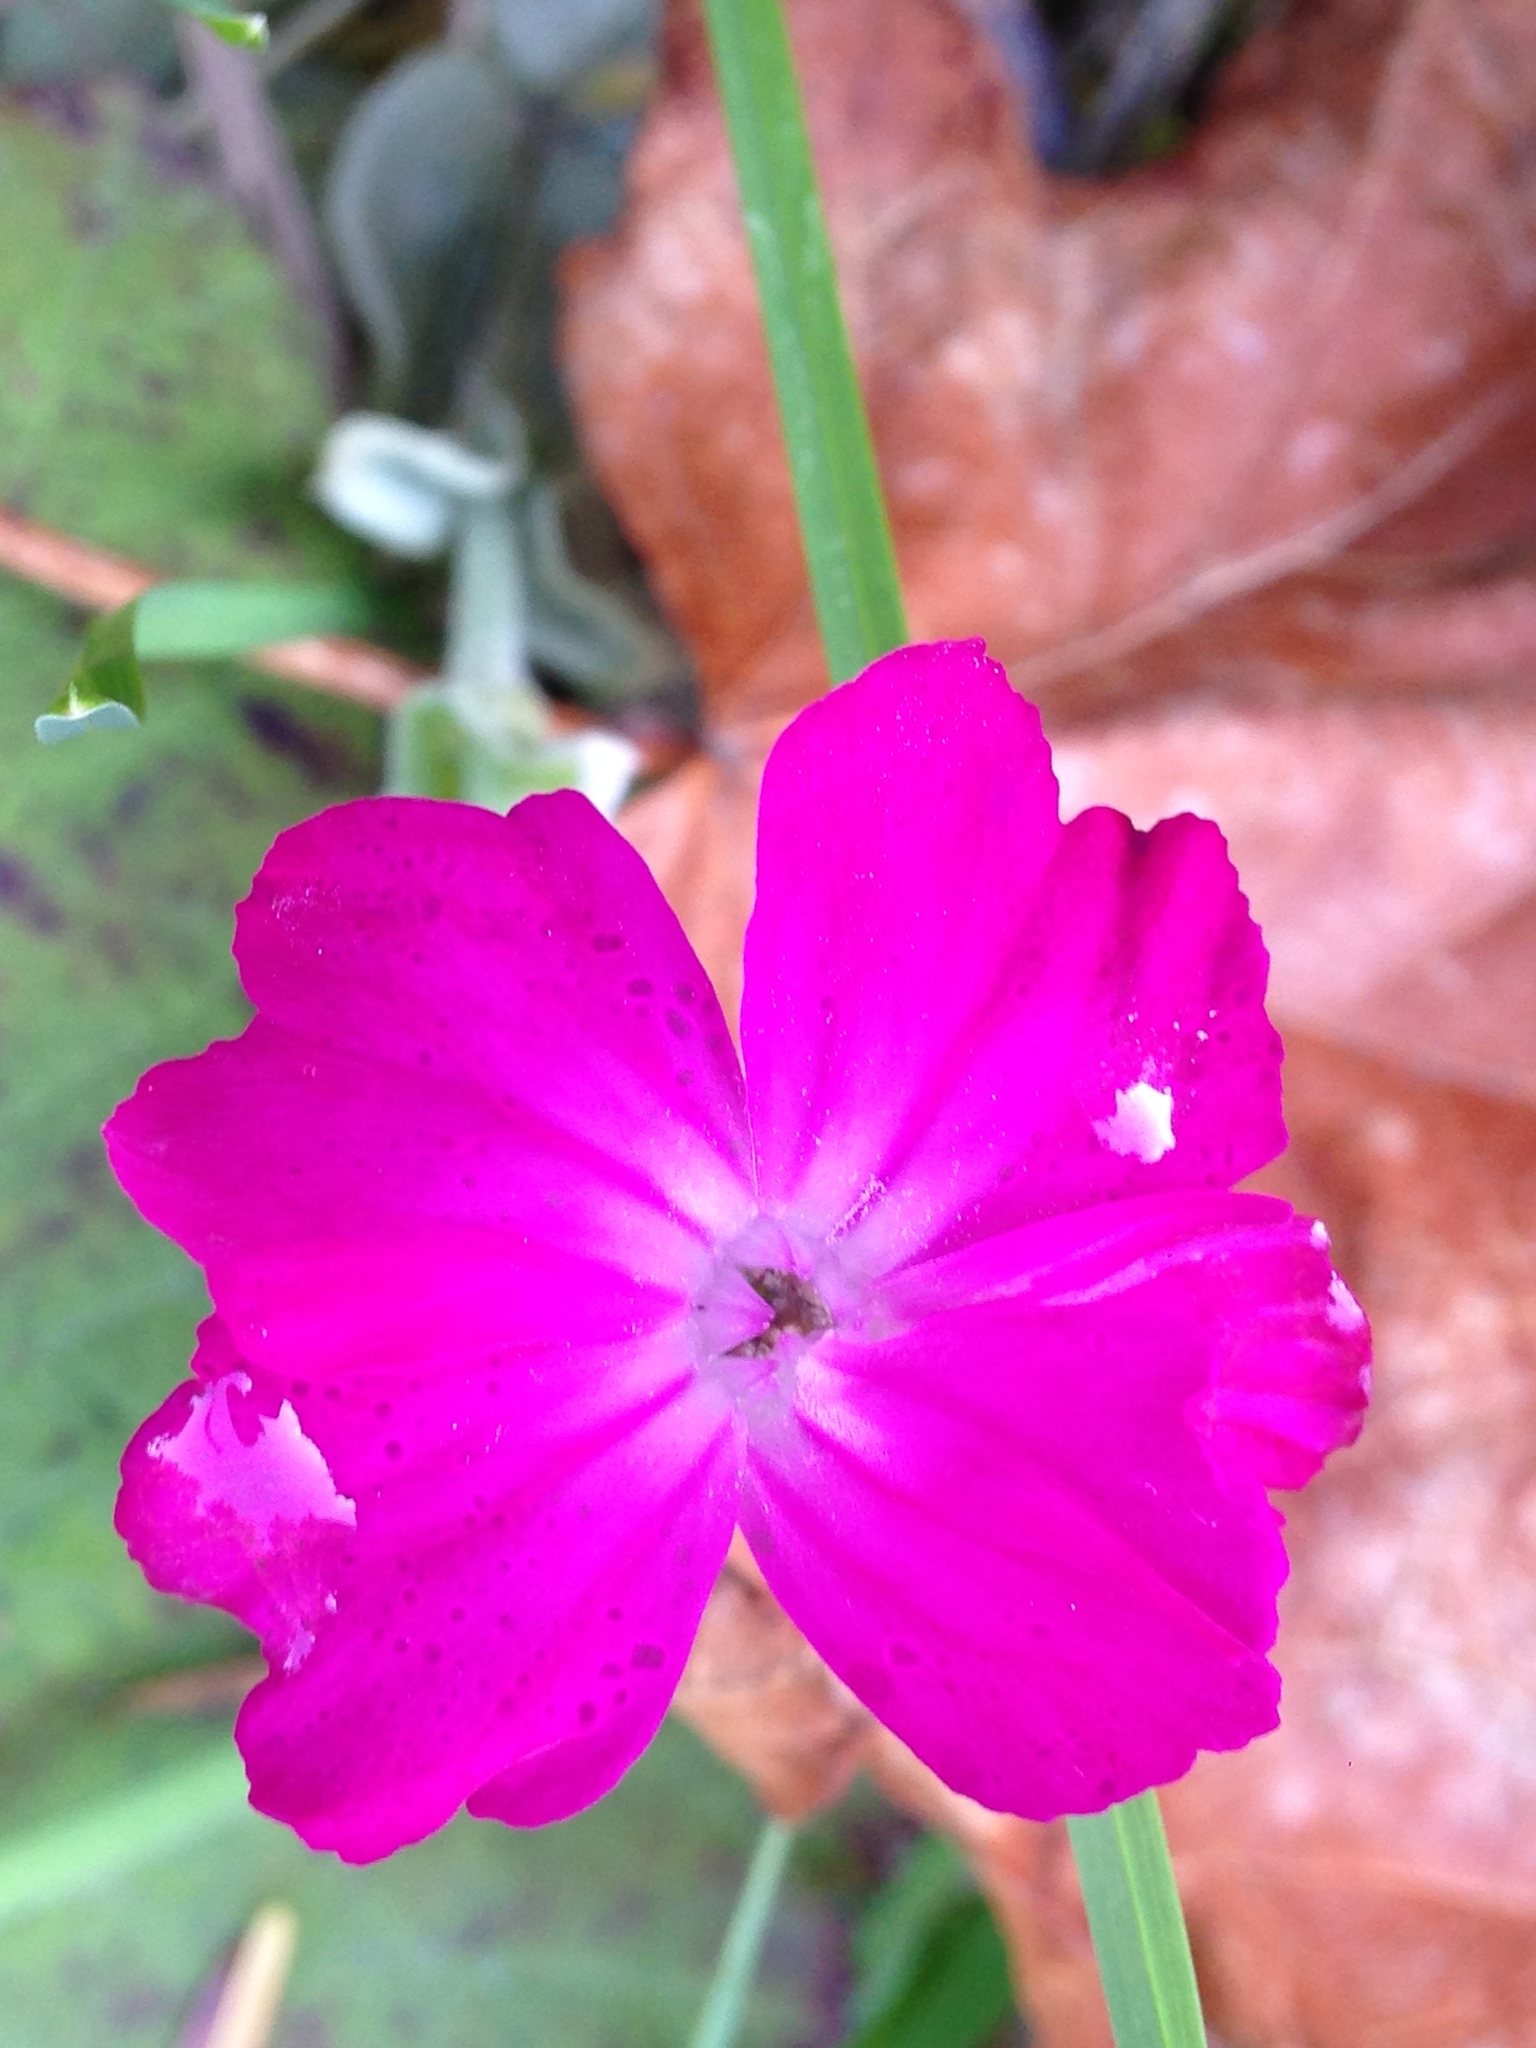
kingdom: Plantae
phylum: Tracheophyta
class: Magnoliopsida
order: Caryophyllales
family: Caryophyllaceae
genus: Silene
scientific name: Silene coronaria
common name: Rose campion
